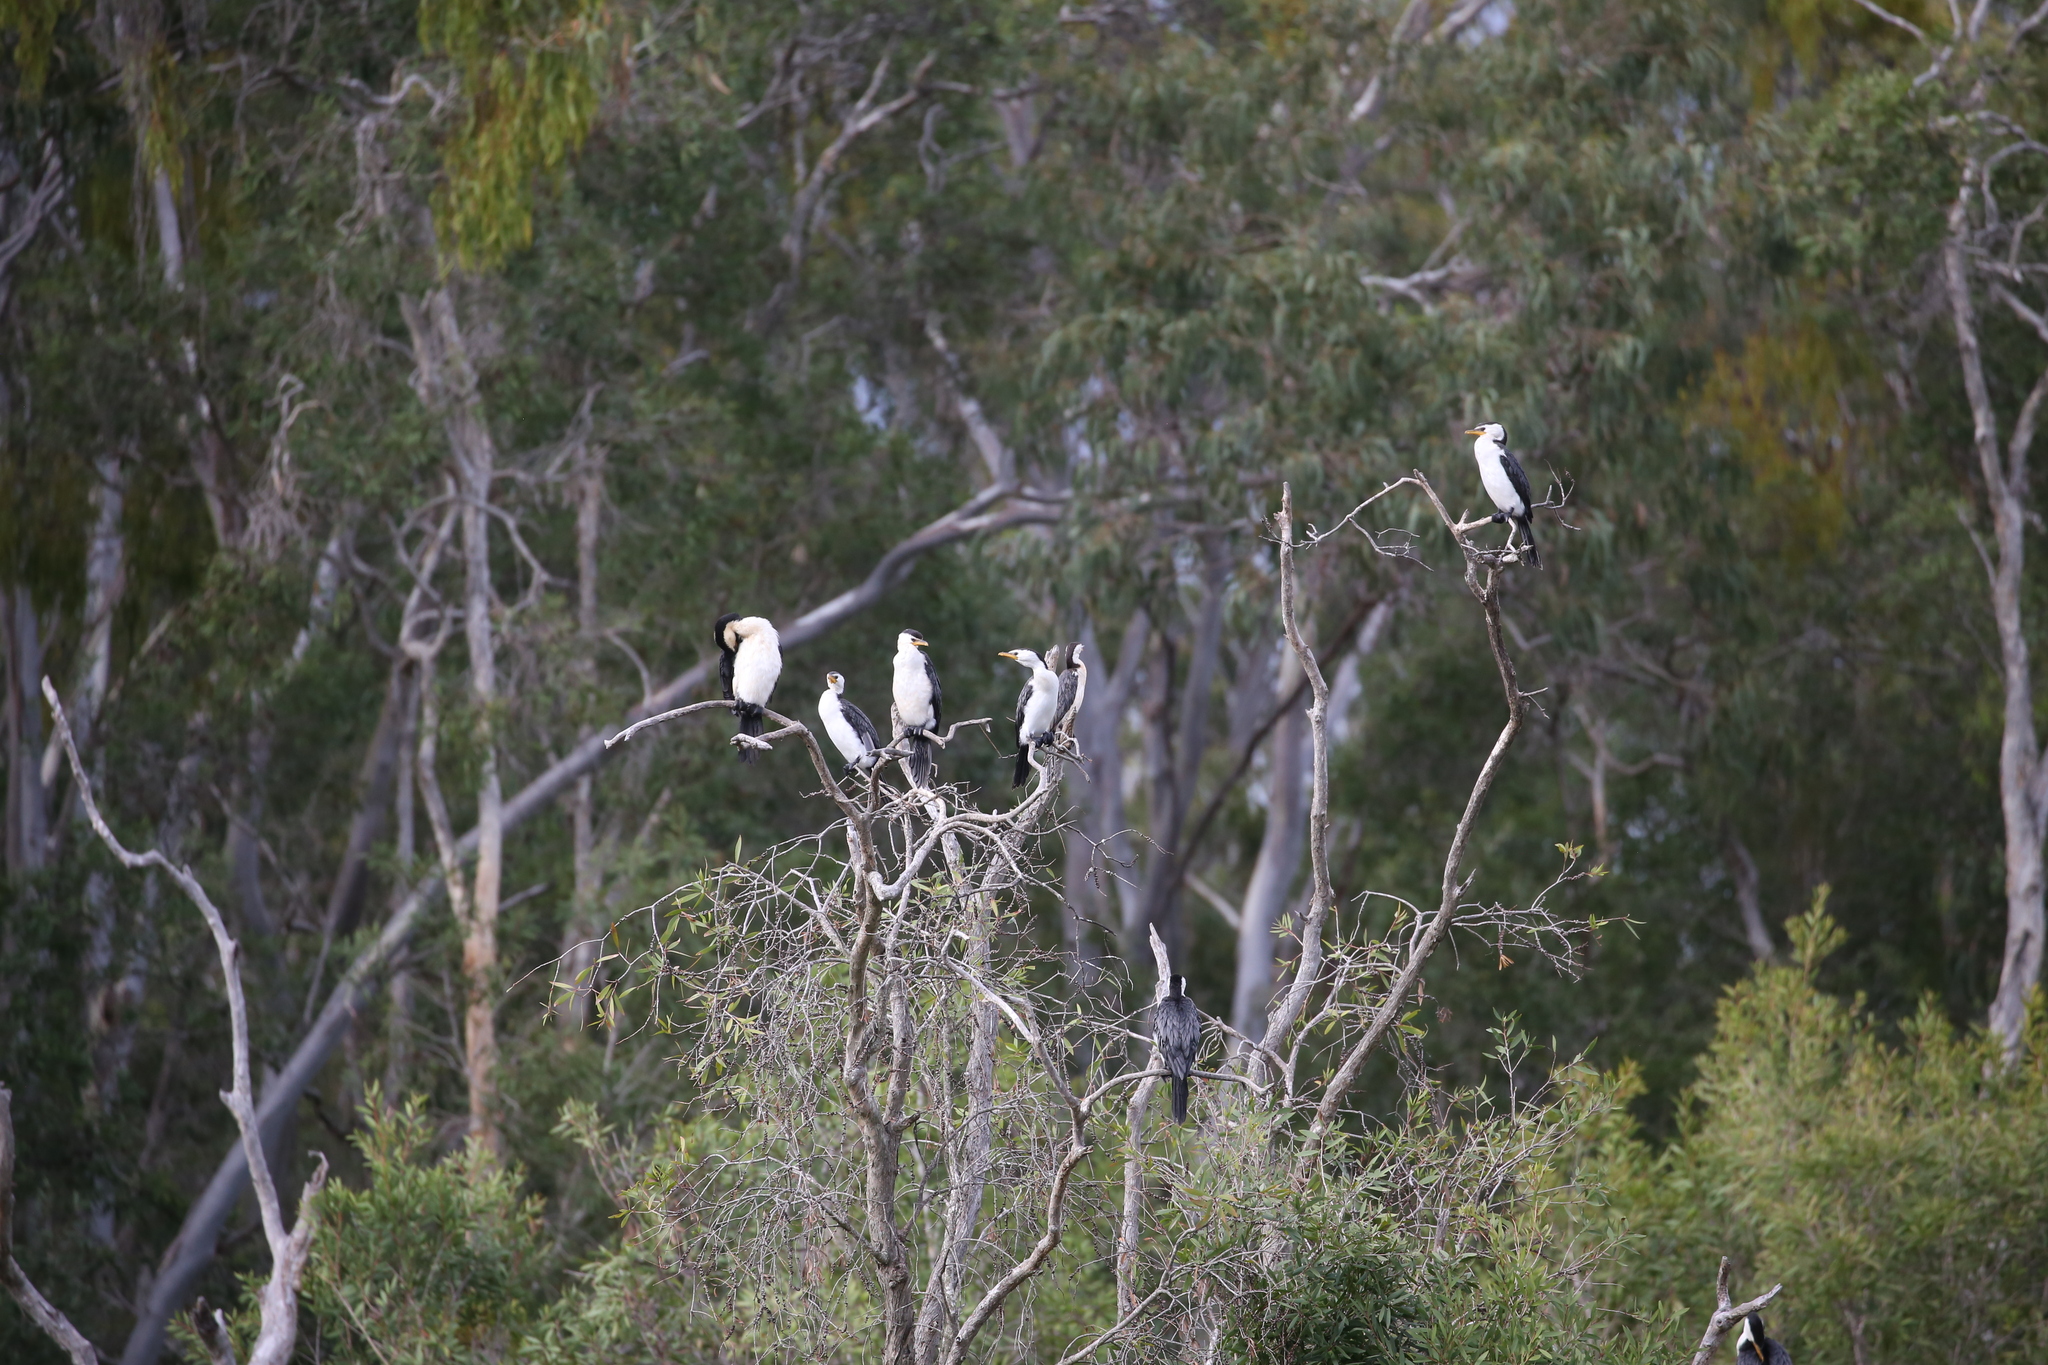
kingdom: Animalia
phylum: Chordata
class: Aves
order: Suliformes
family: Phalacrocoracidae
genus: Microcarbo
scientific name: Microcarbo melanoleucos
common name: Little pied cormorant
